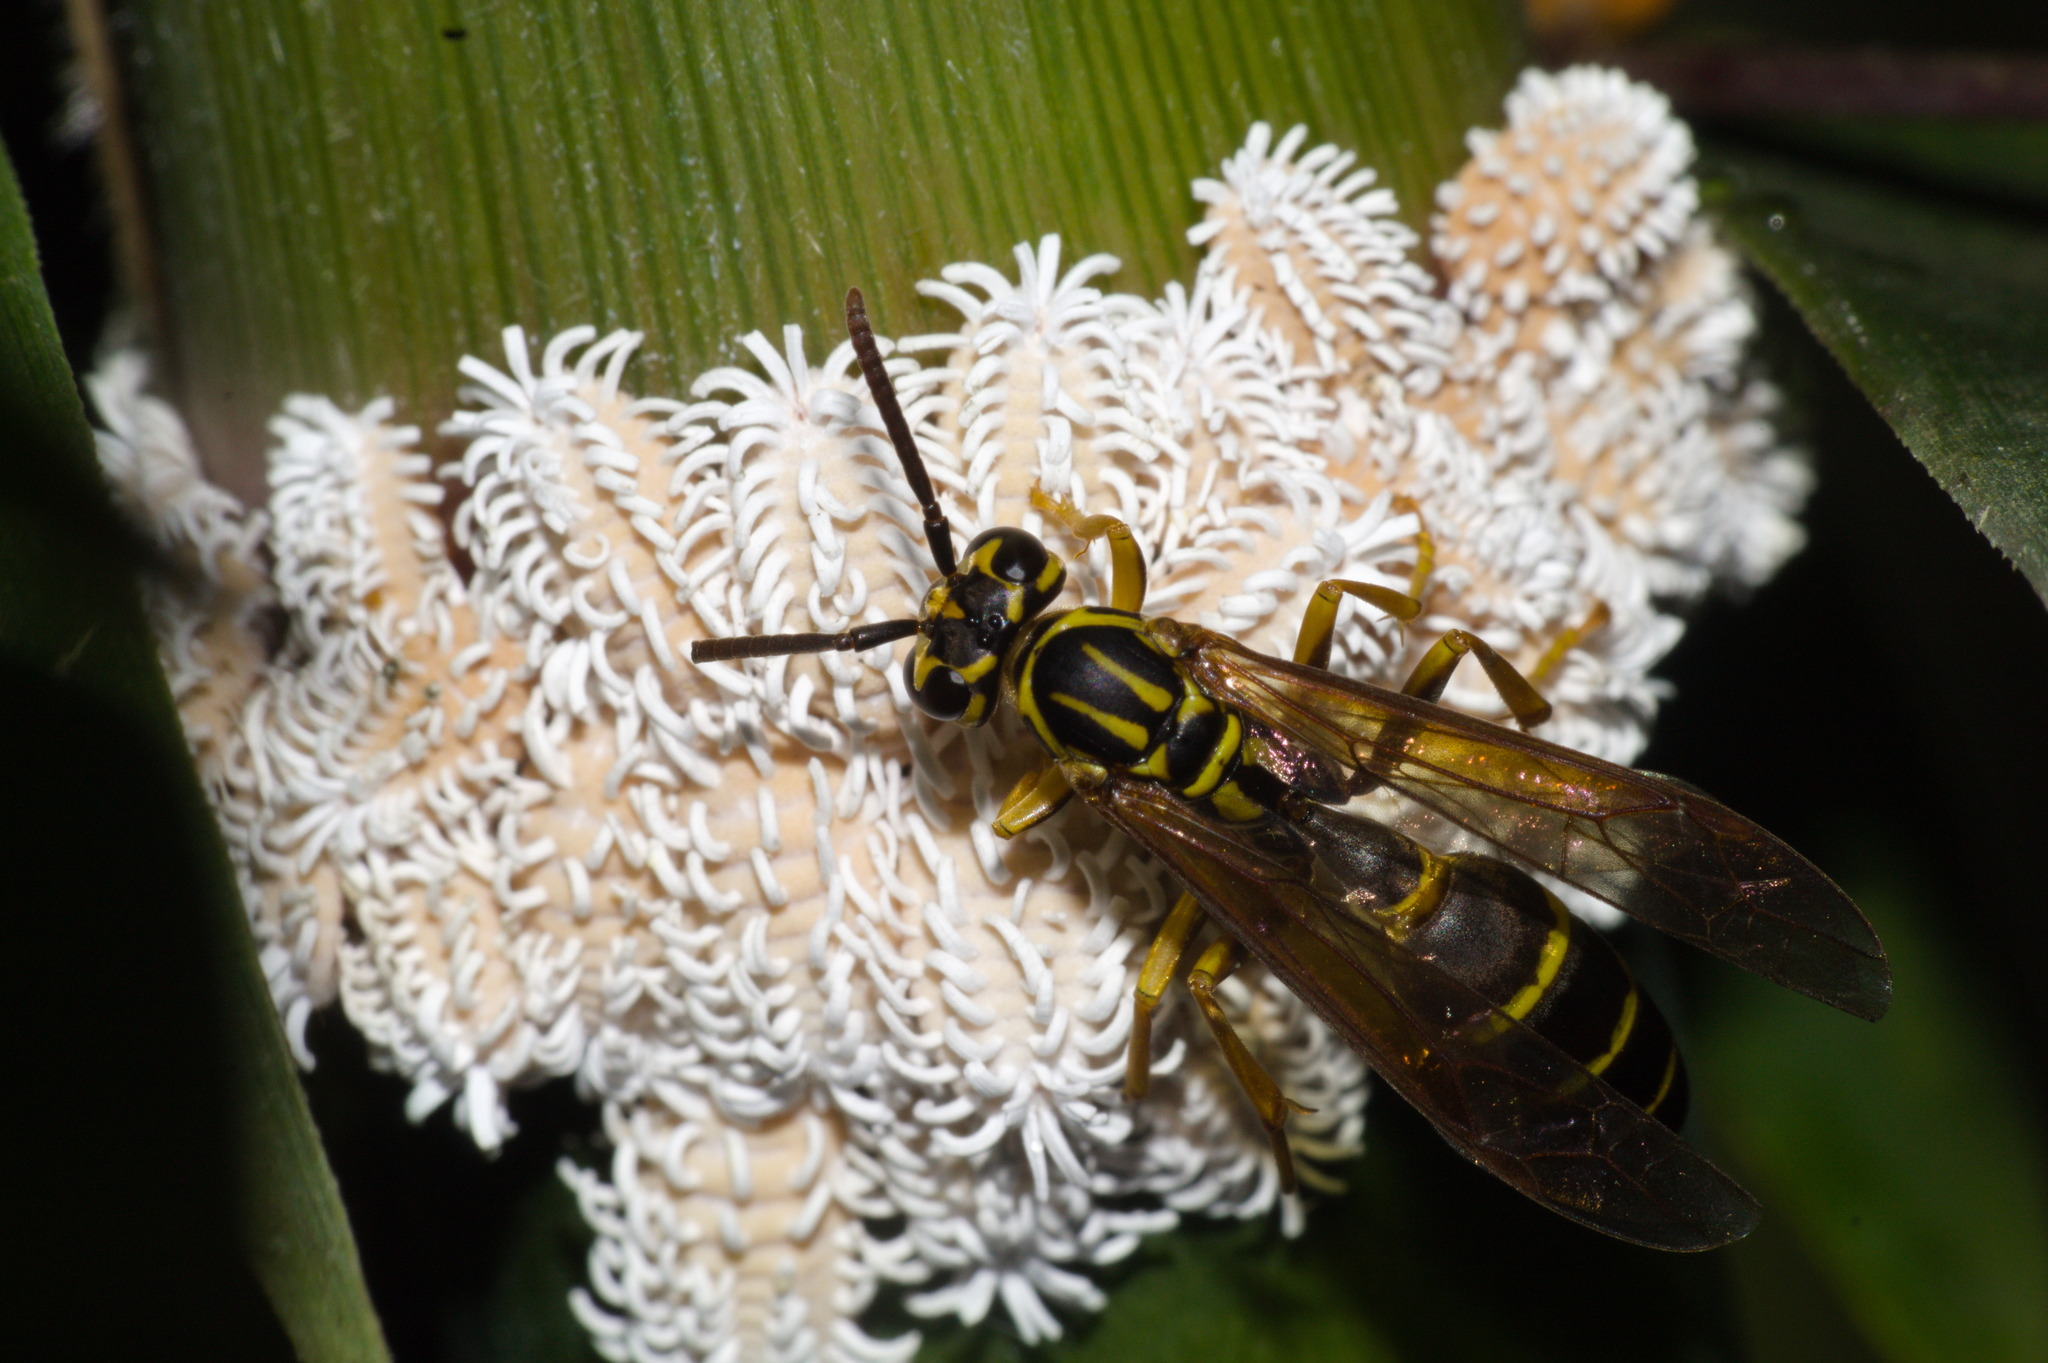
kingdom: Animalia
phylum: Arthropoda
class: Insecta
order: Hymenoptera
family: Vespidae
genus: Agelaia
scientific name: Agelaia multipicta
